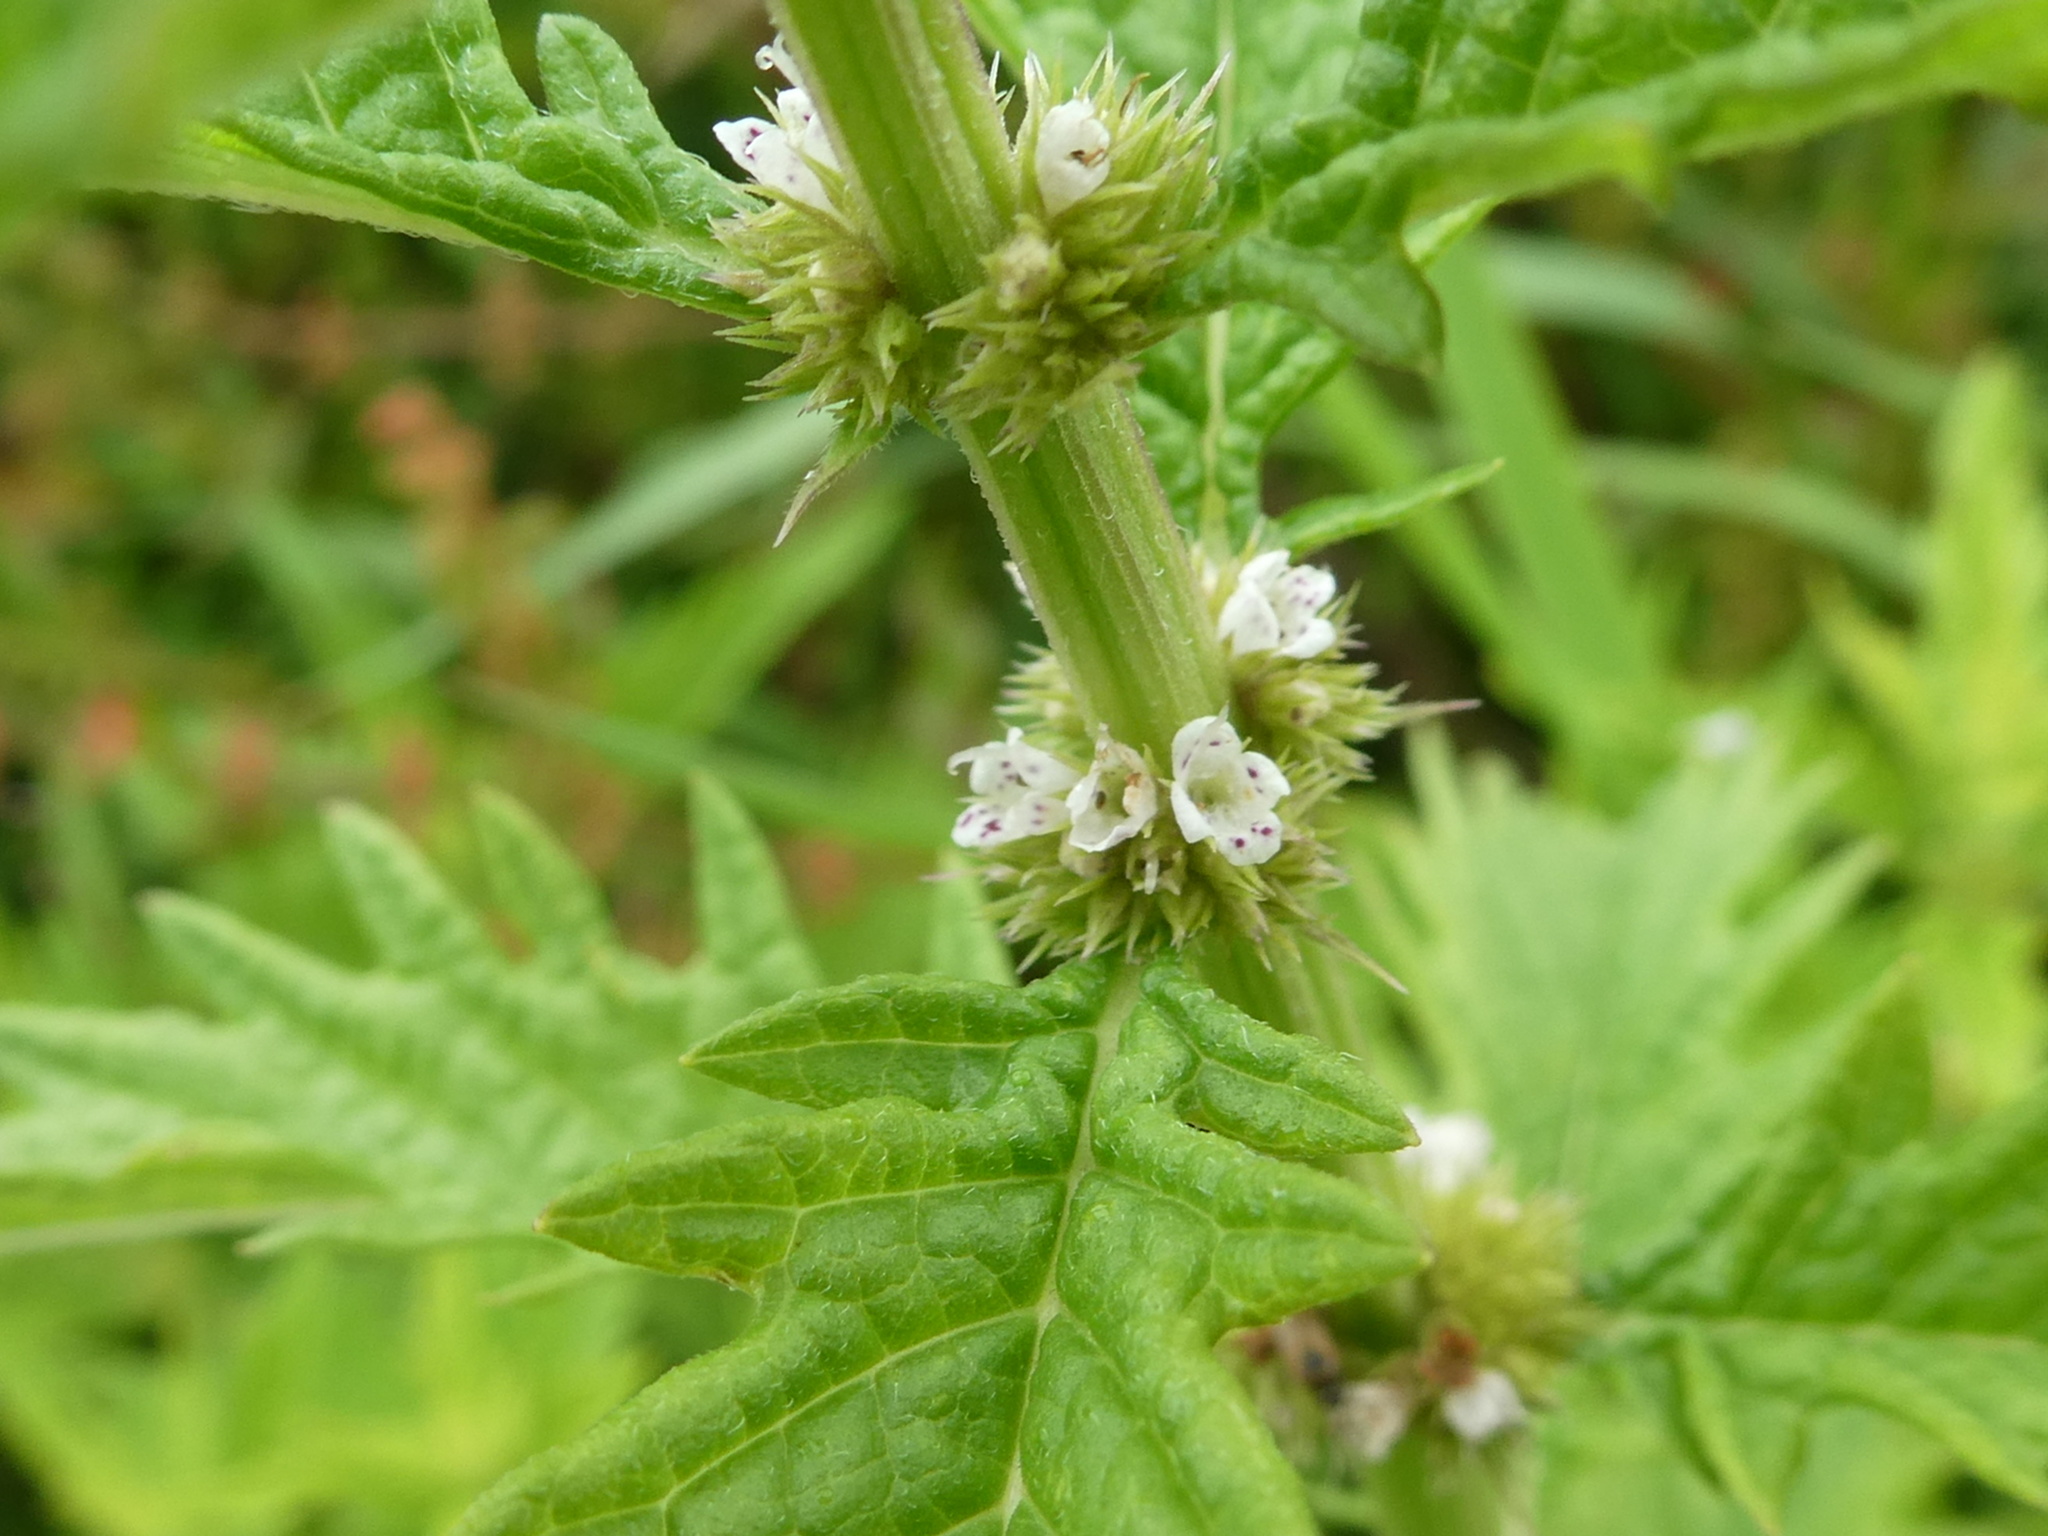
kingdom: Plantae
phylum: Tracheophyta
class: Magnoliopsida
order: Lamiales
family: Lamiaceae
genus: Lycopus
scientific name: Lycopus europaeus
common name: European bugleweed
